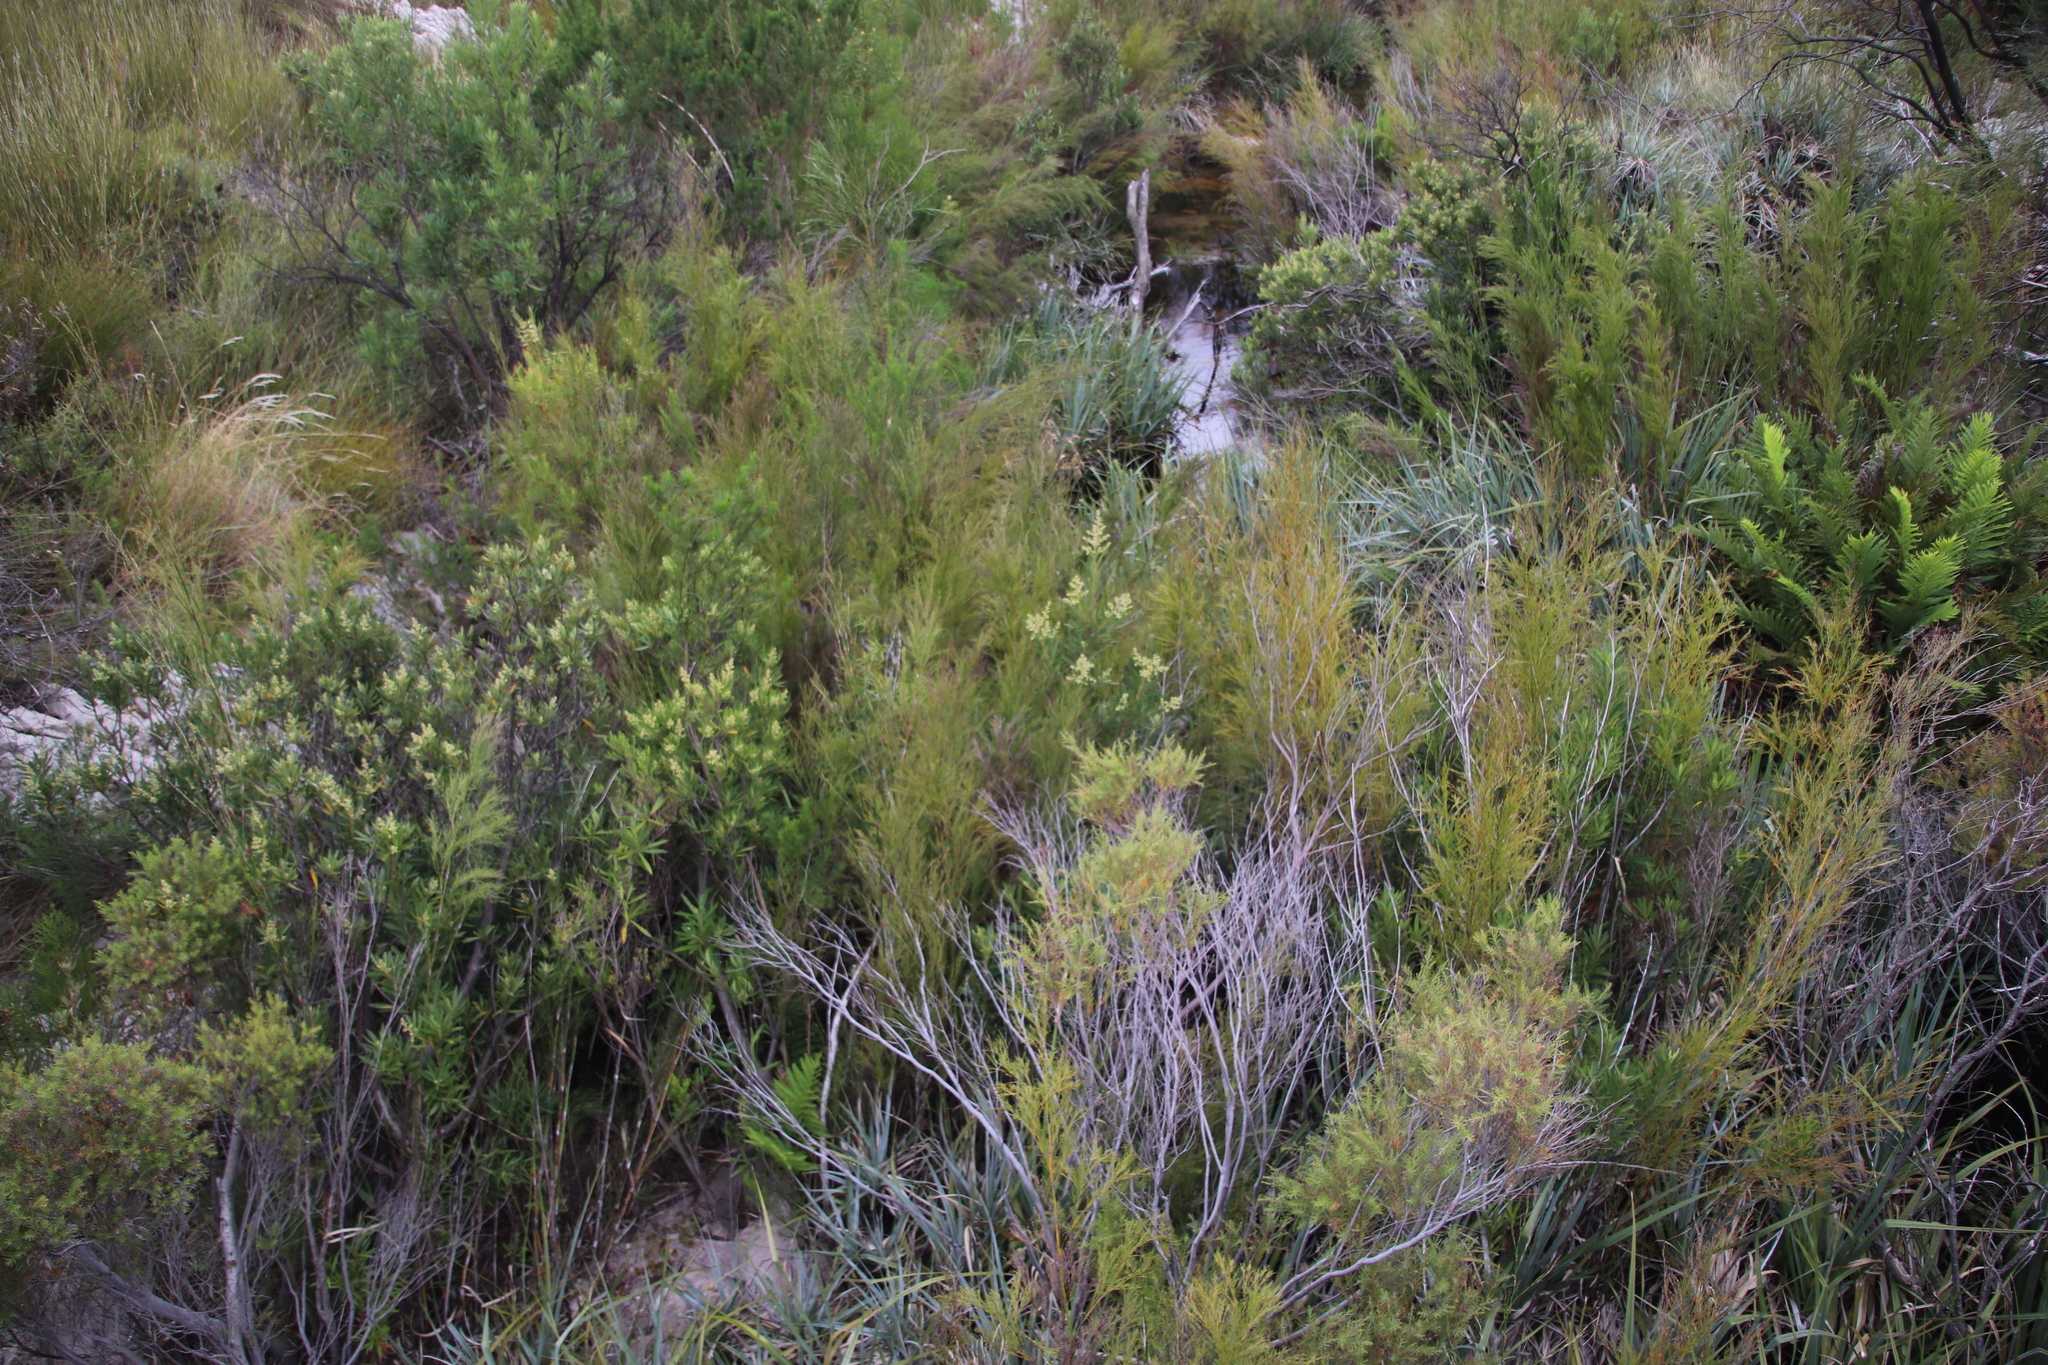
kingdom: Plantae
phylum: Tracheophyta
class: Magnoliopsida
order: Asterales
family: Asteraceae
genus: Brachylaena
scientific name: Brachylaena neriifolia
